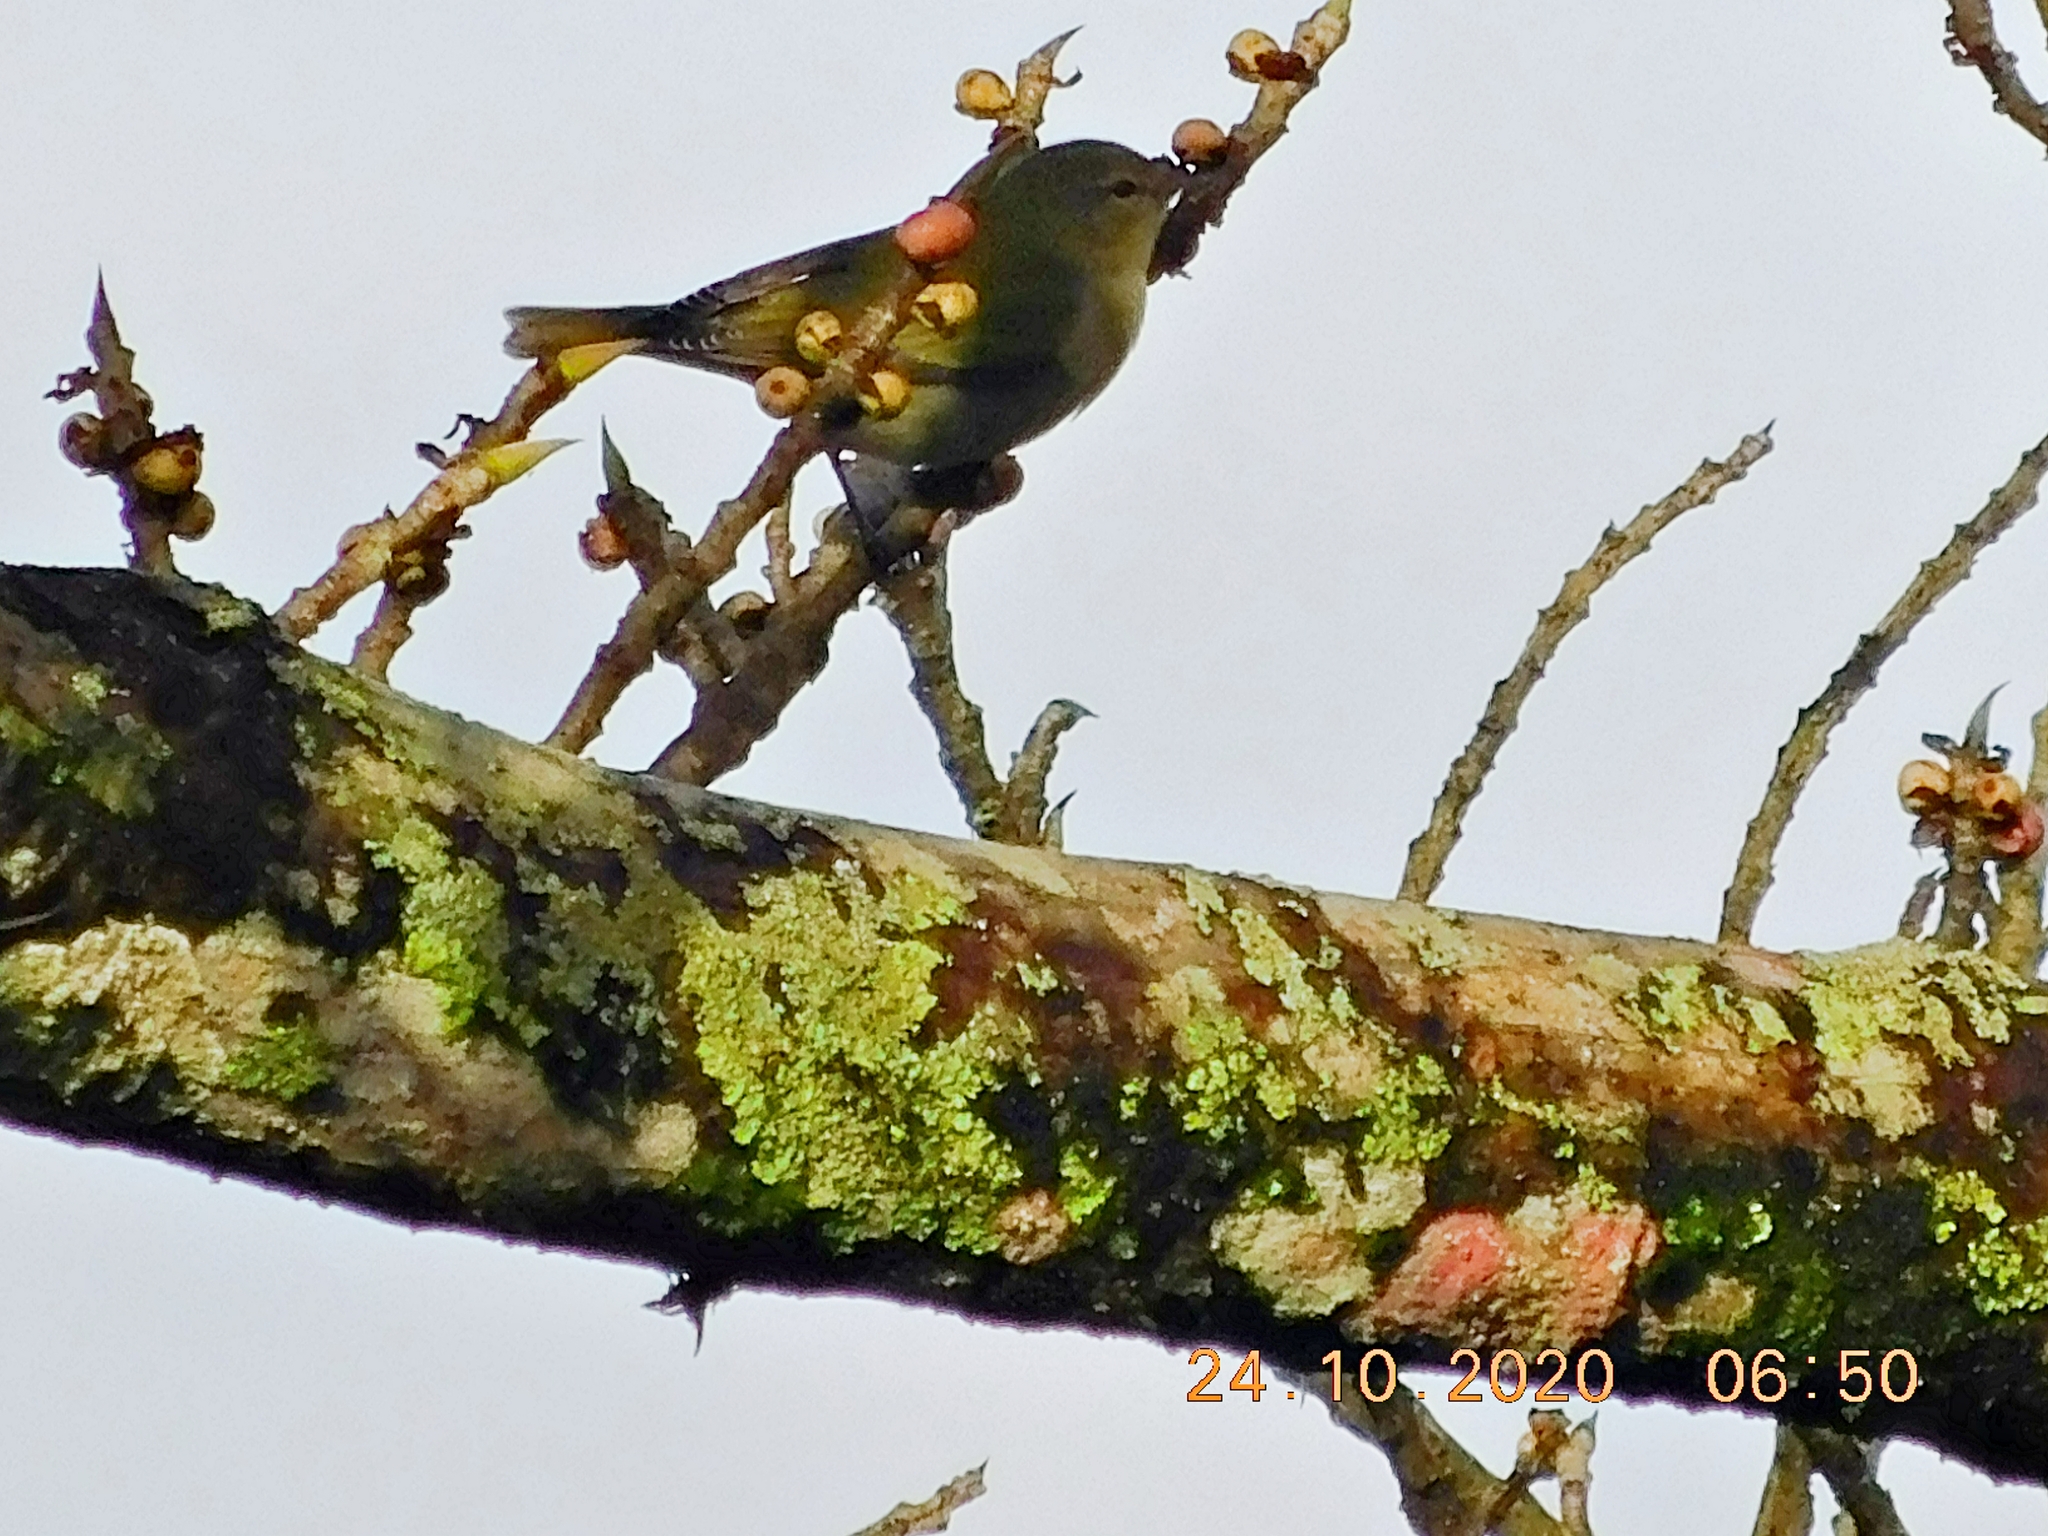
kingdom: Animalia
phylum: Chordata
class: Aves
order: Passeriformes
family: Parulidae
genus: Leiothlypis
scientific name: Leiothlypis peregrina
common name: Tennessee warbler
